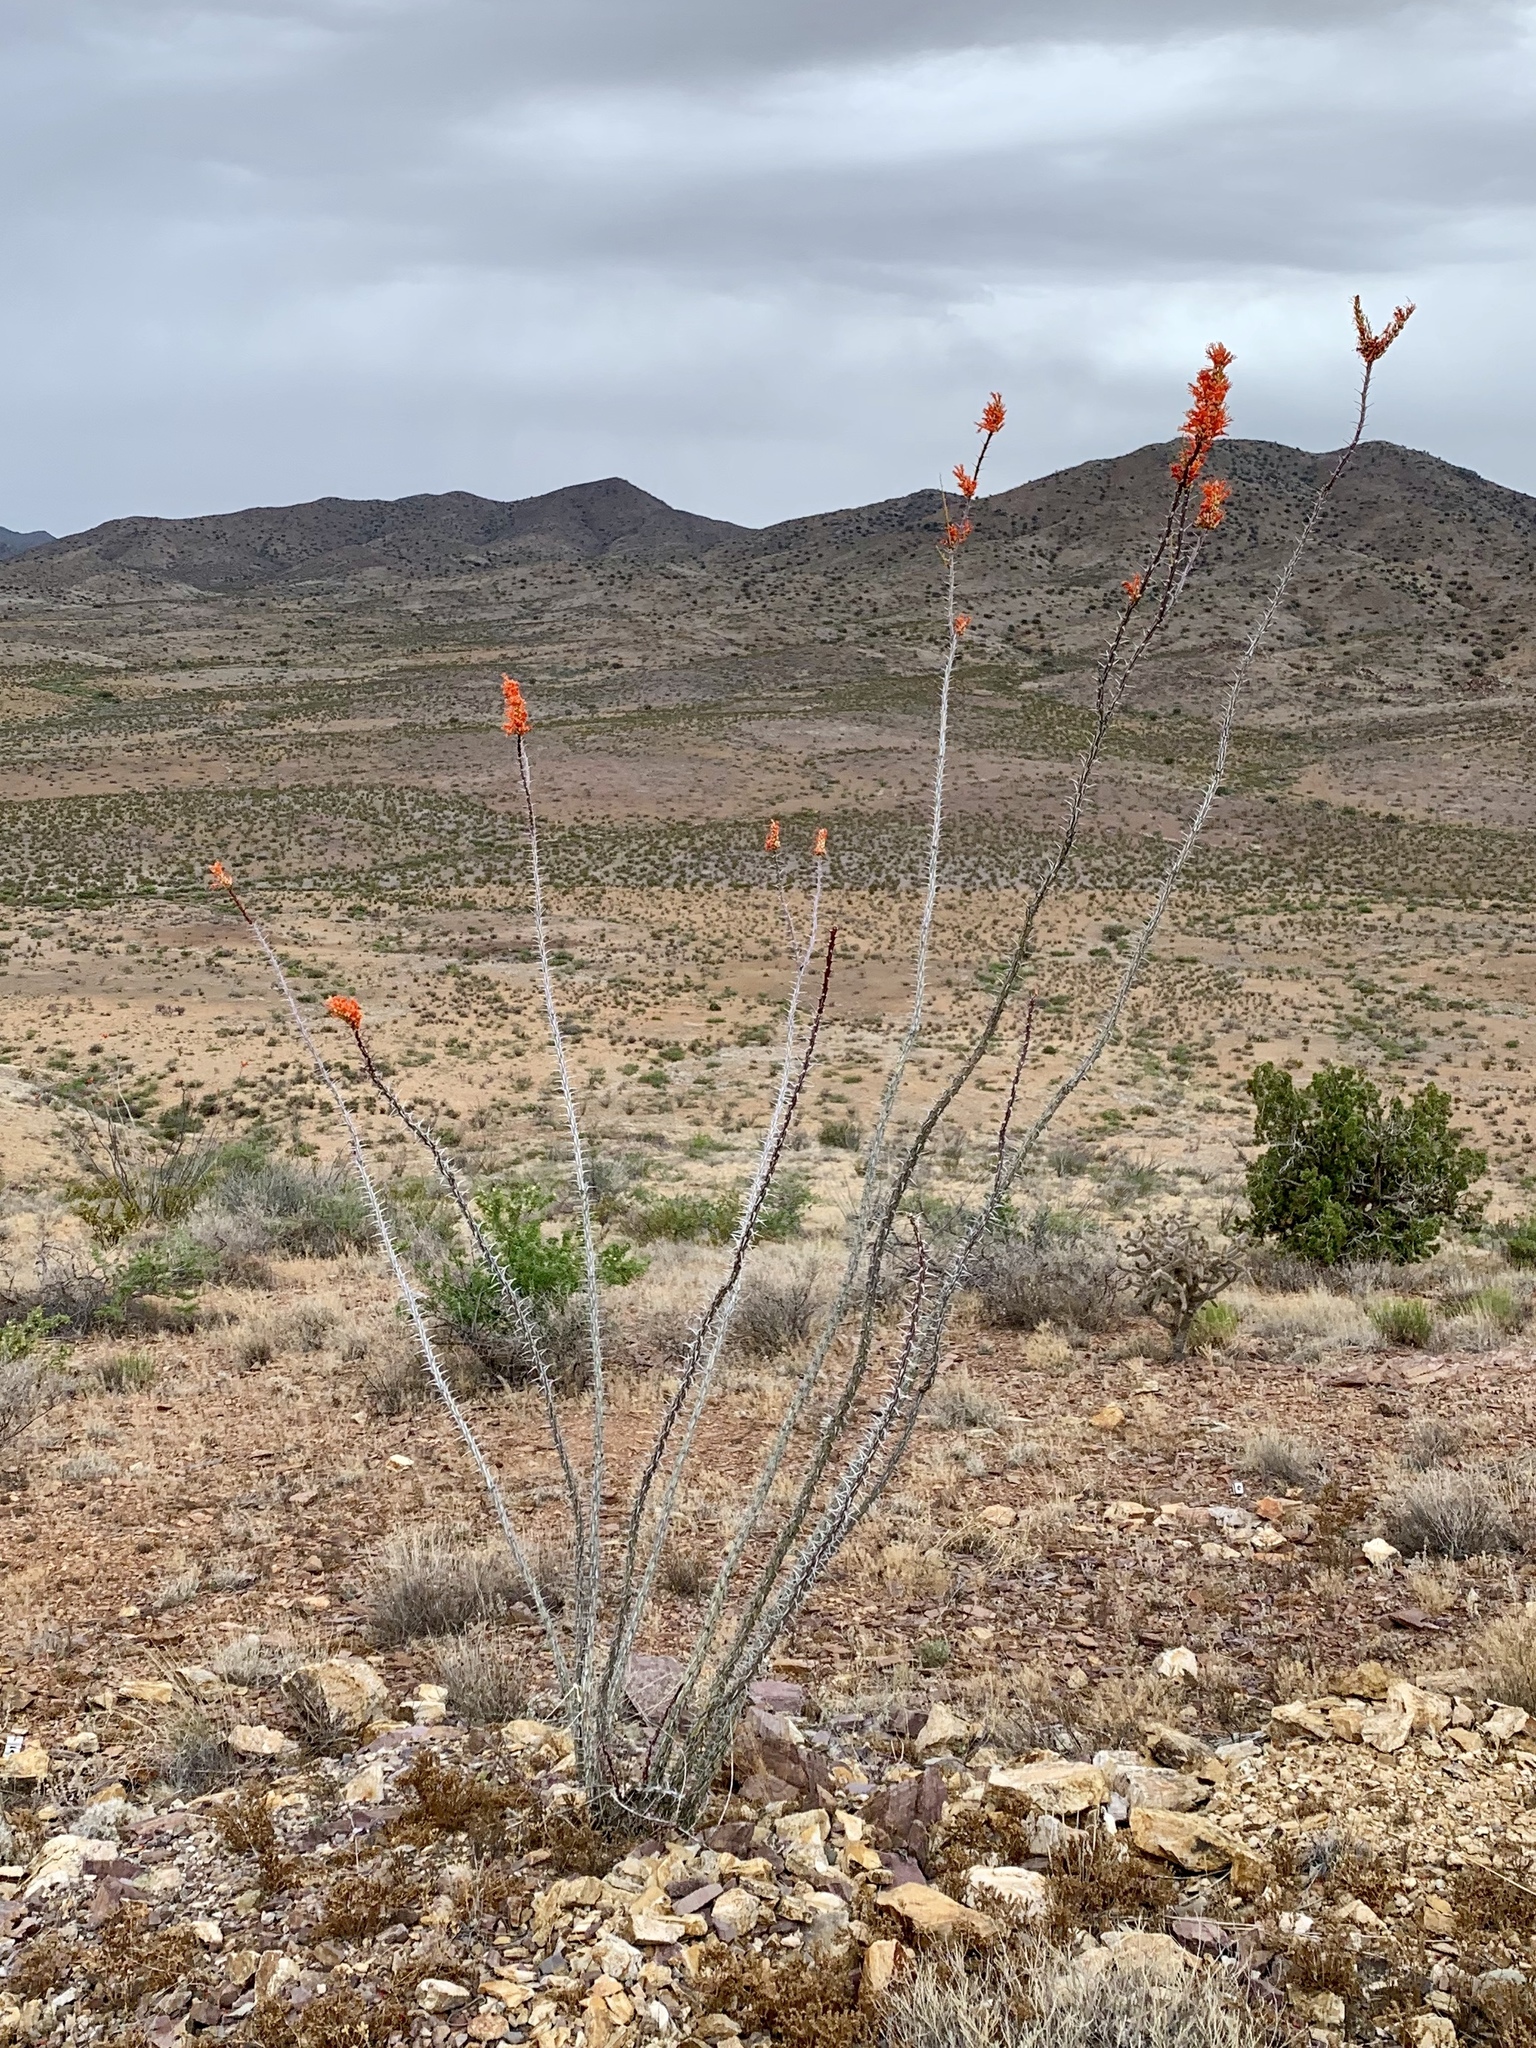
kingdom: Plantae
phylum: Tracheophyta
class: Magnoliopsida
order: Ericales
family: Fouquieriaceae
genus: Fouquieria
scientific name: Fouquieria splendens
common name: Vine-cactus
